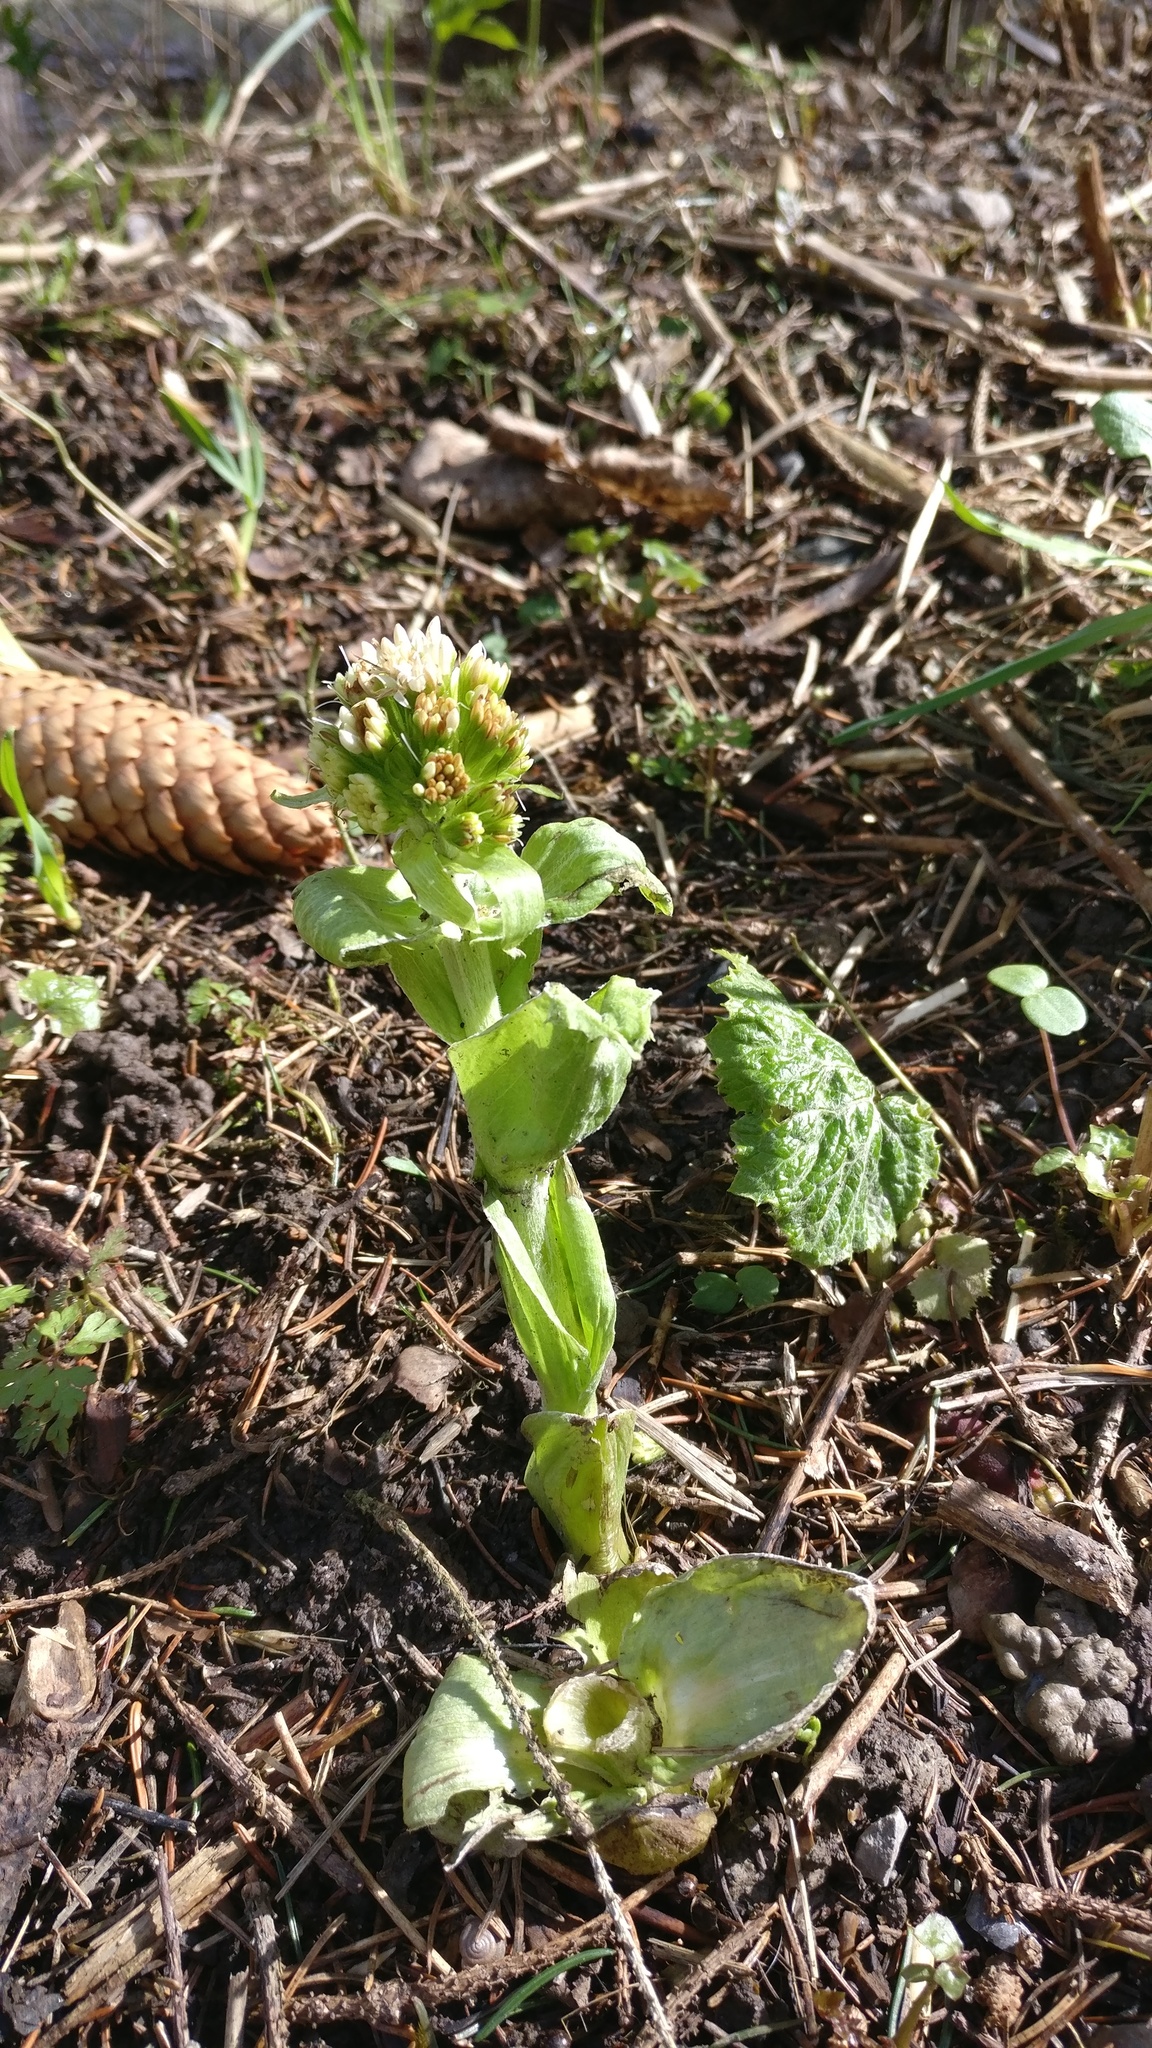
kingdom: Plantae
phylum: Tracheophyta
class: Magnoliopsida
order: Asterales
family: Asteraceae
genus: Petasites
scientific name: Petasites albus
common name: White butterbur
